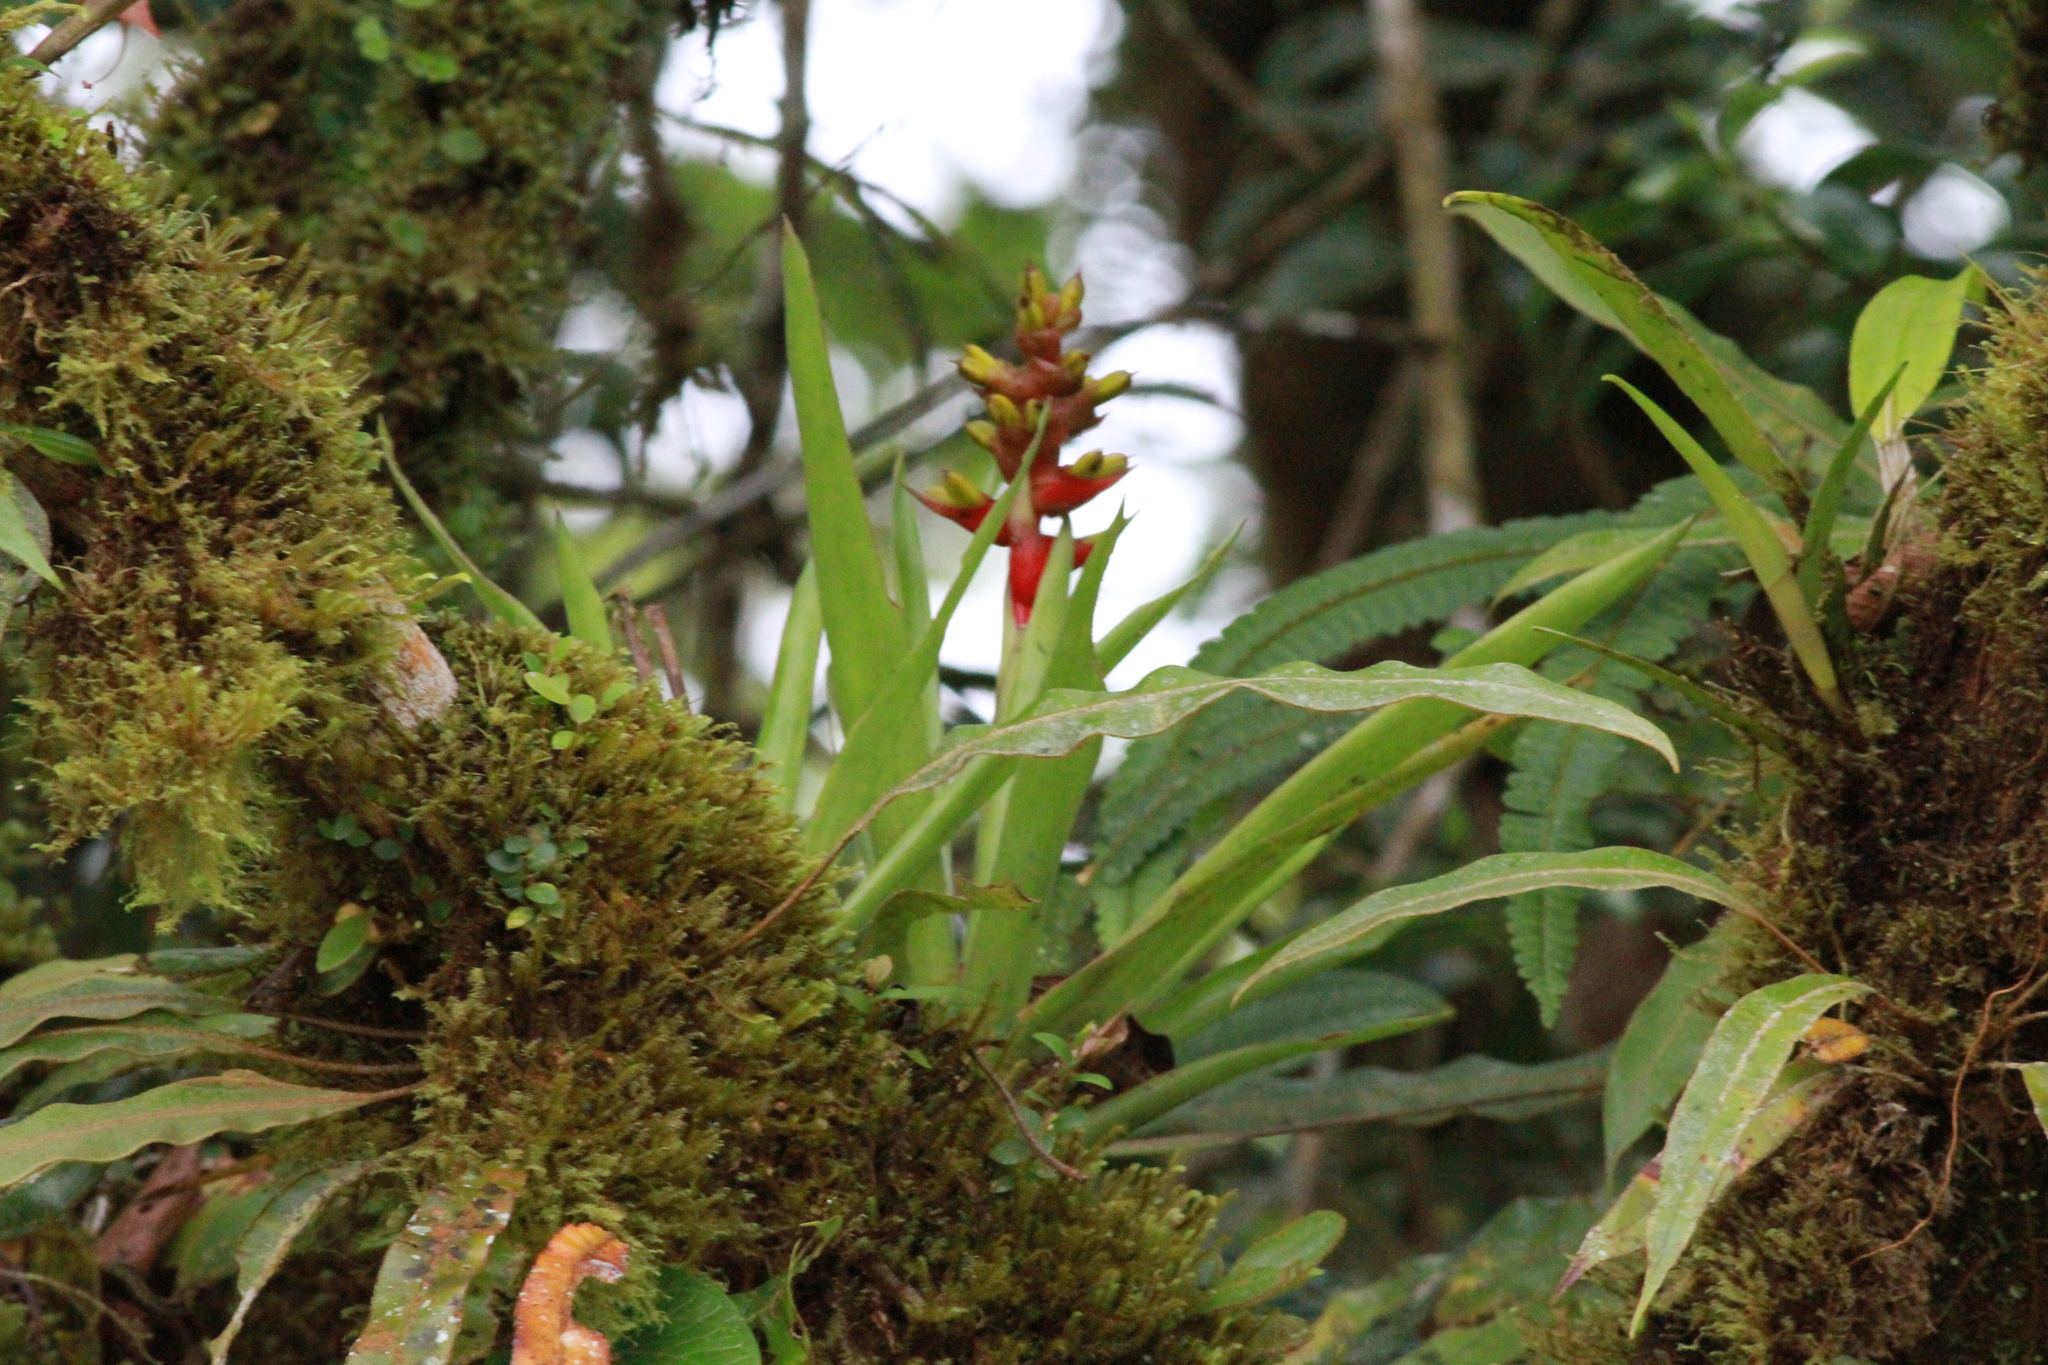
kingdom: Plantae
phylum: Tracheophyta
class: Liliopsida
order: Poales
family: Bromeliaceae
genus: Guzmania
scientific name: Guzmania donnellsmithii
